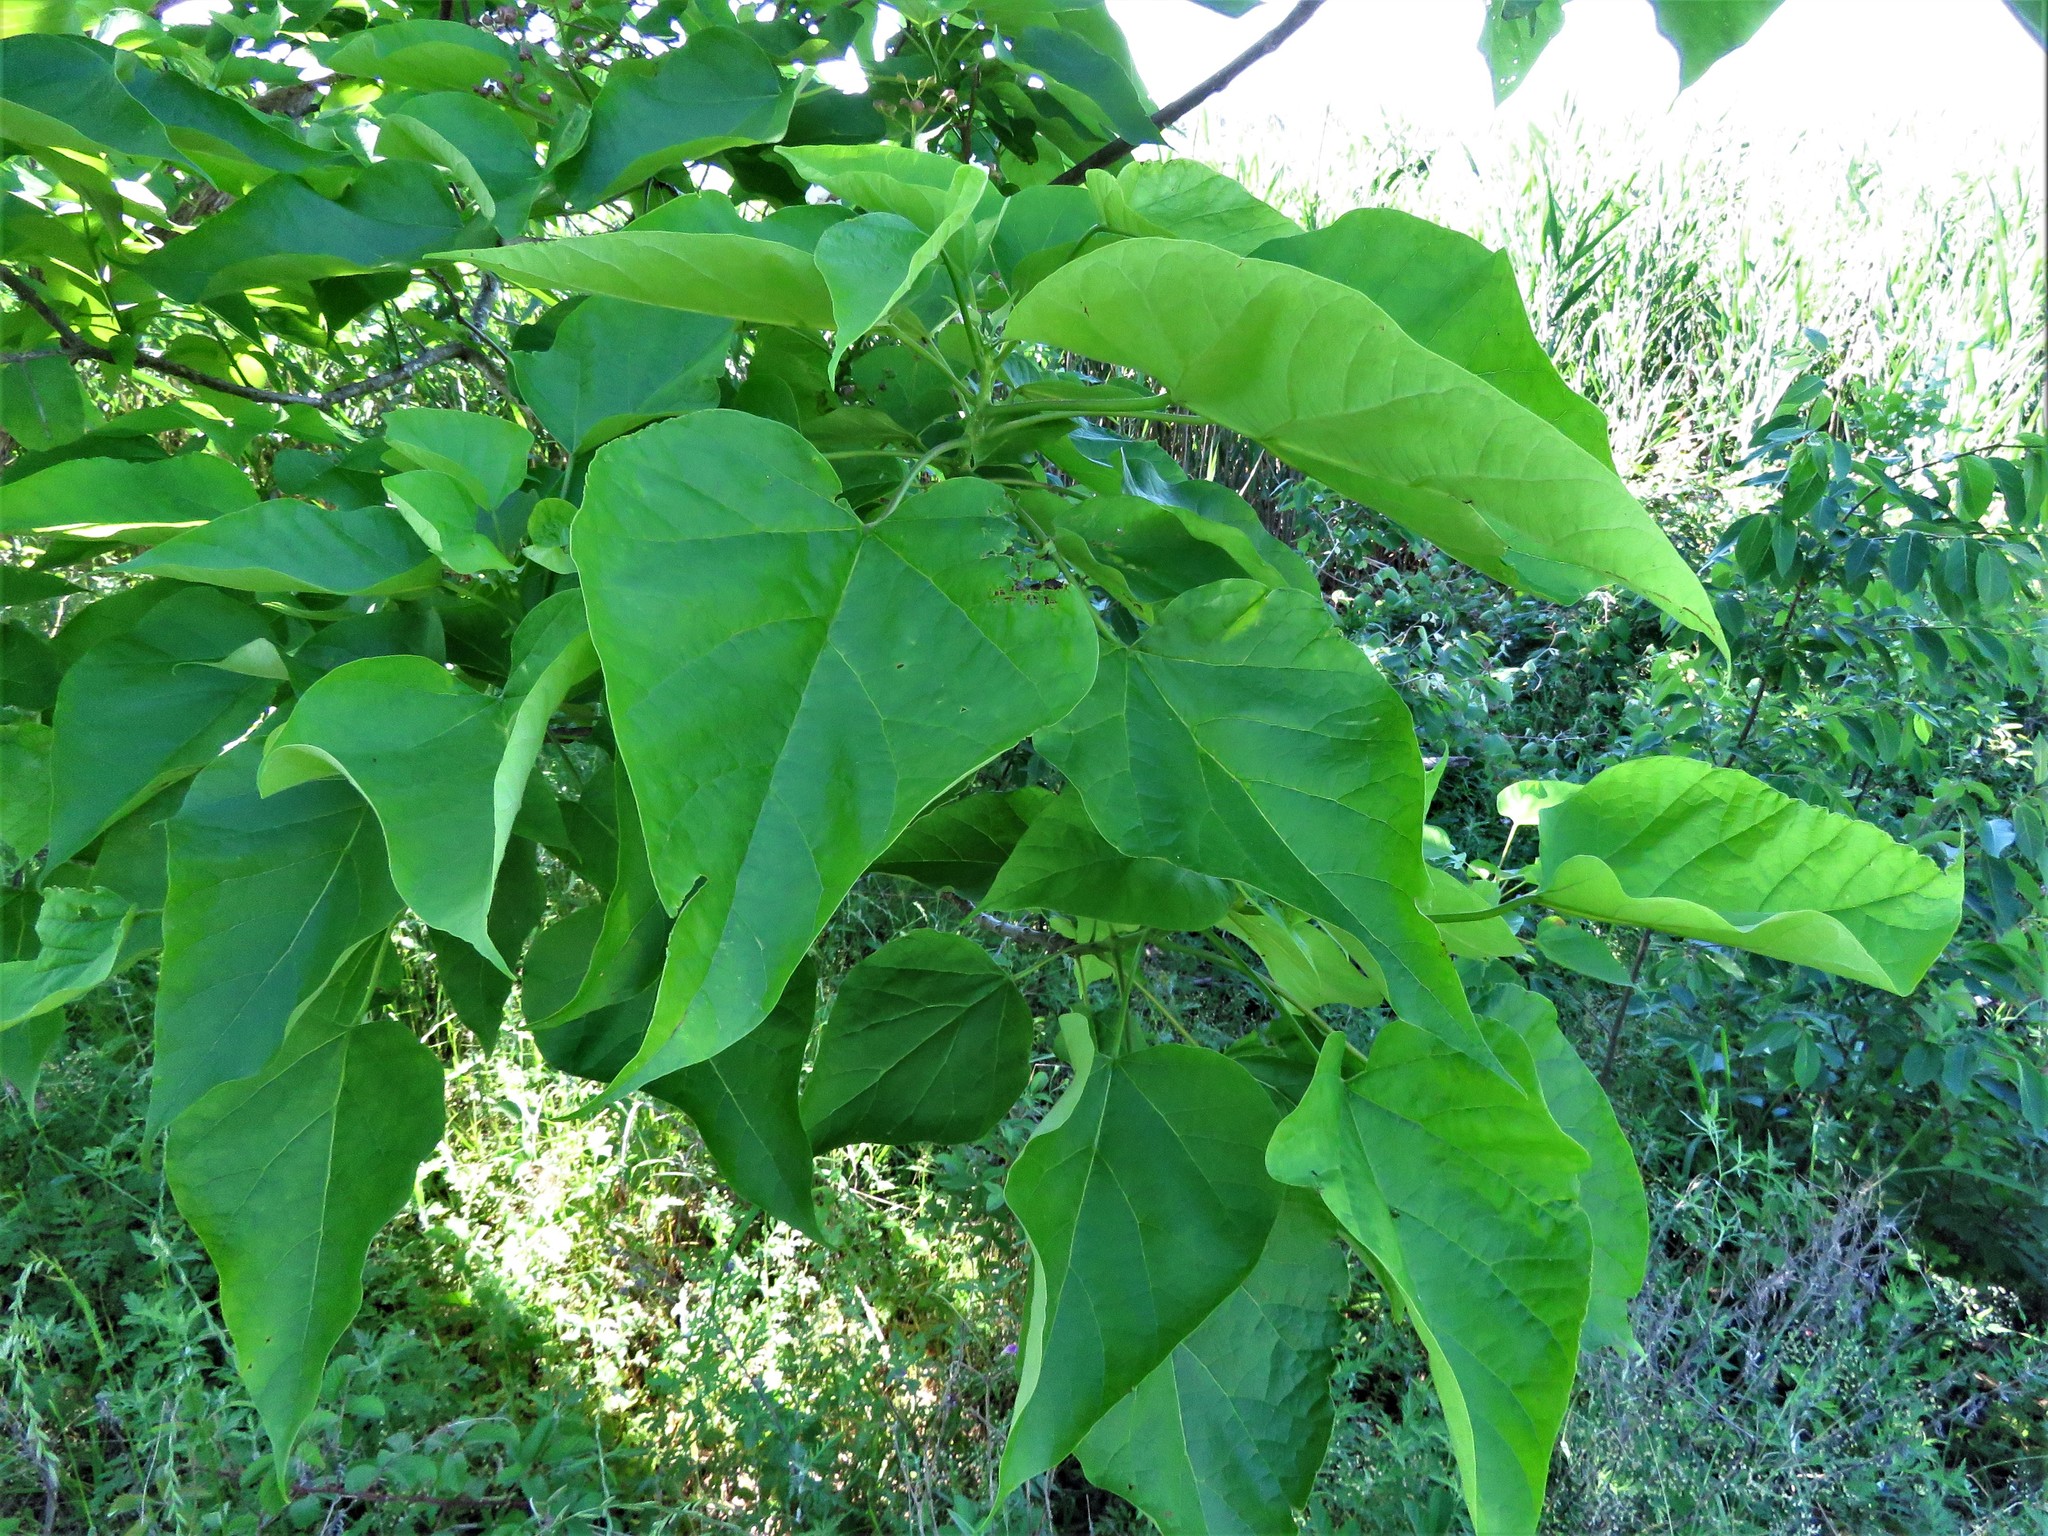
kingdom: Plantae
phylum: Tracheophyta
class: Magnoliopsida
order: Lamiales
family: Bignoniaceae
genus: Catalpa
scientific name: Catalpa bignonioides
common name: Southern catalpa
